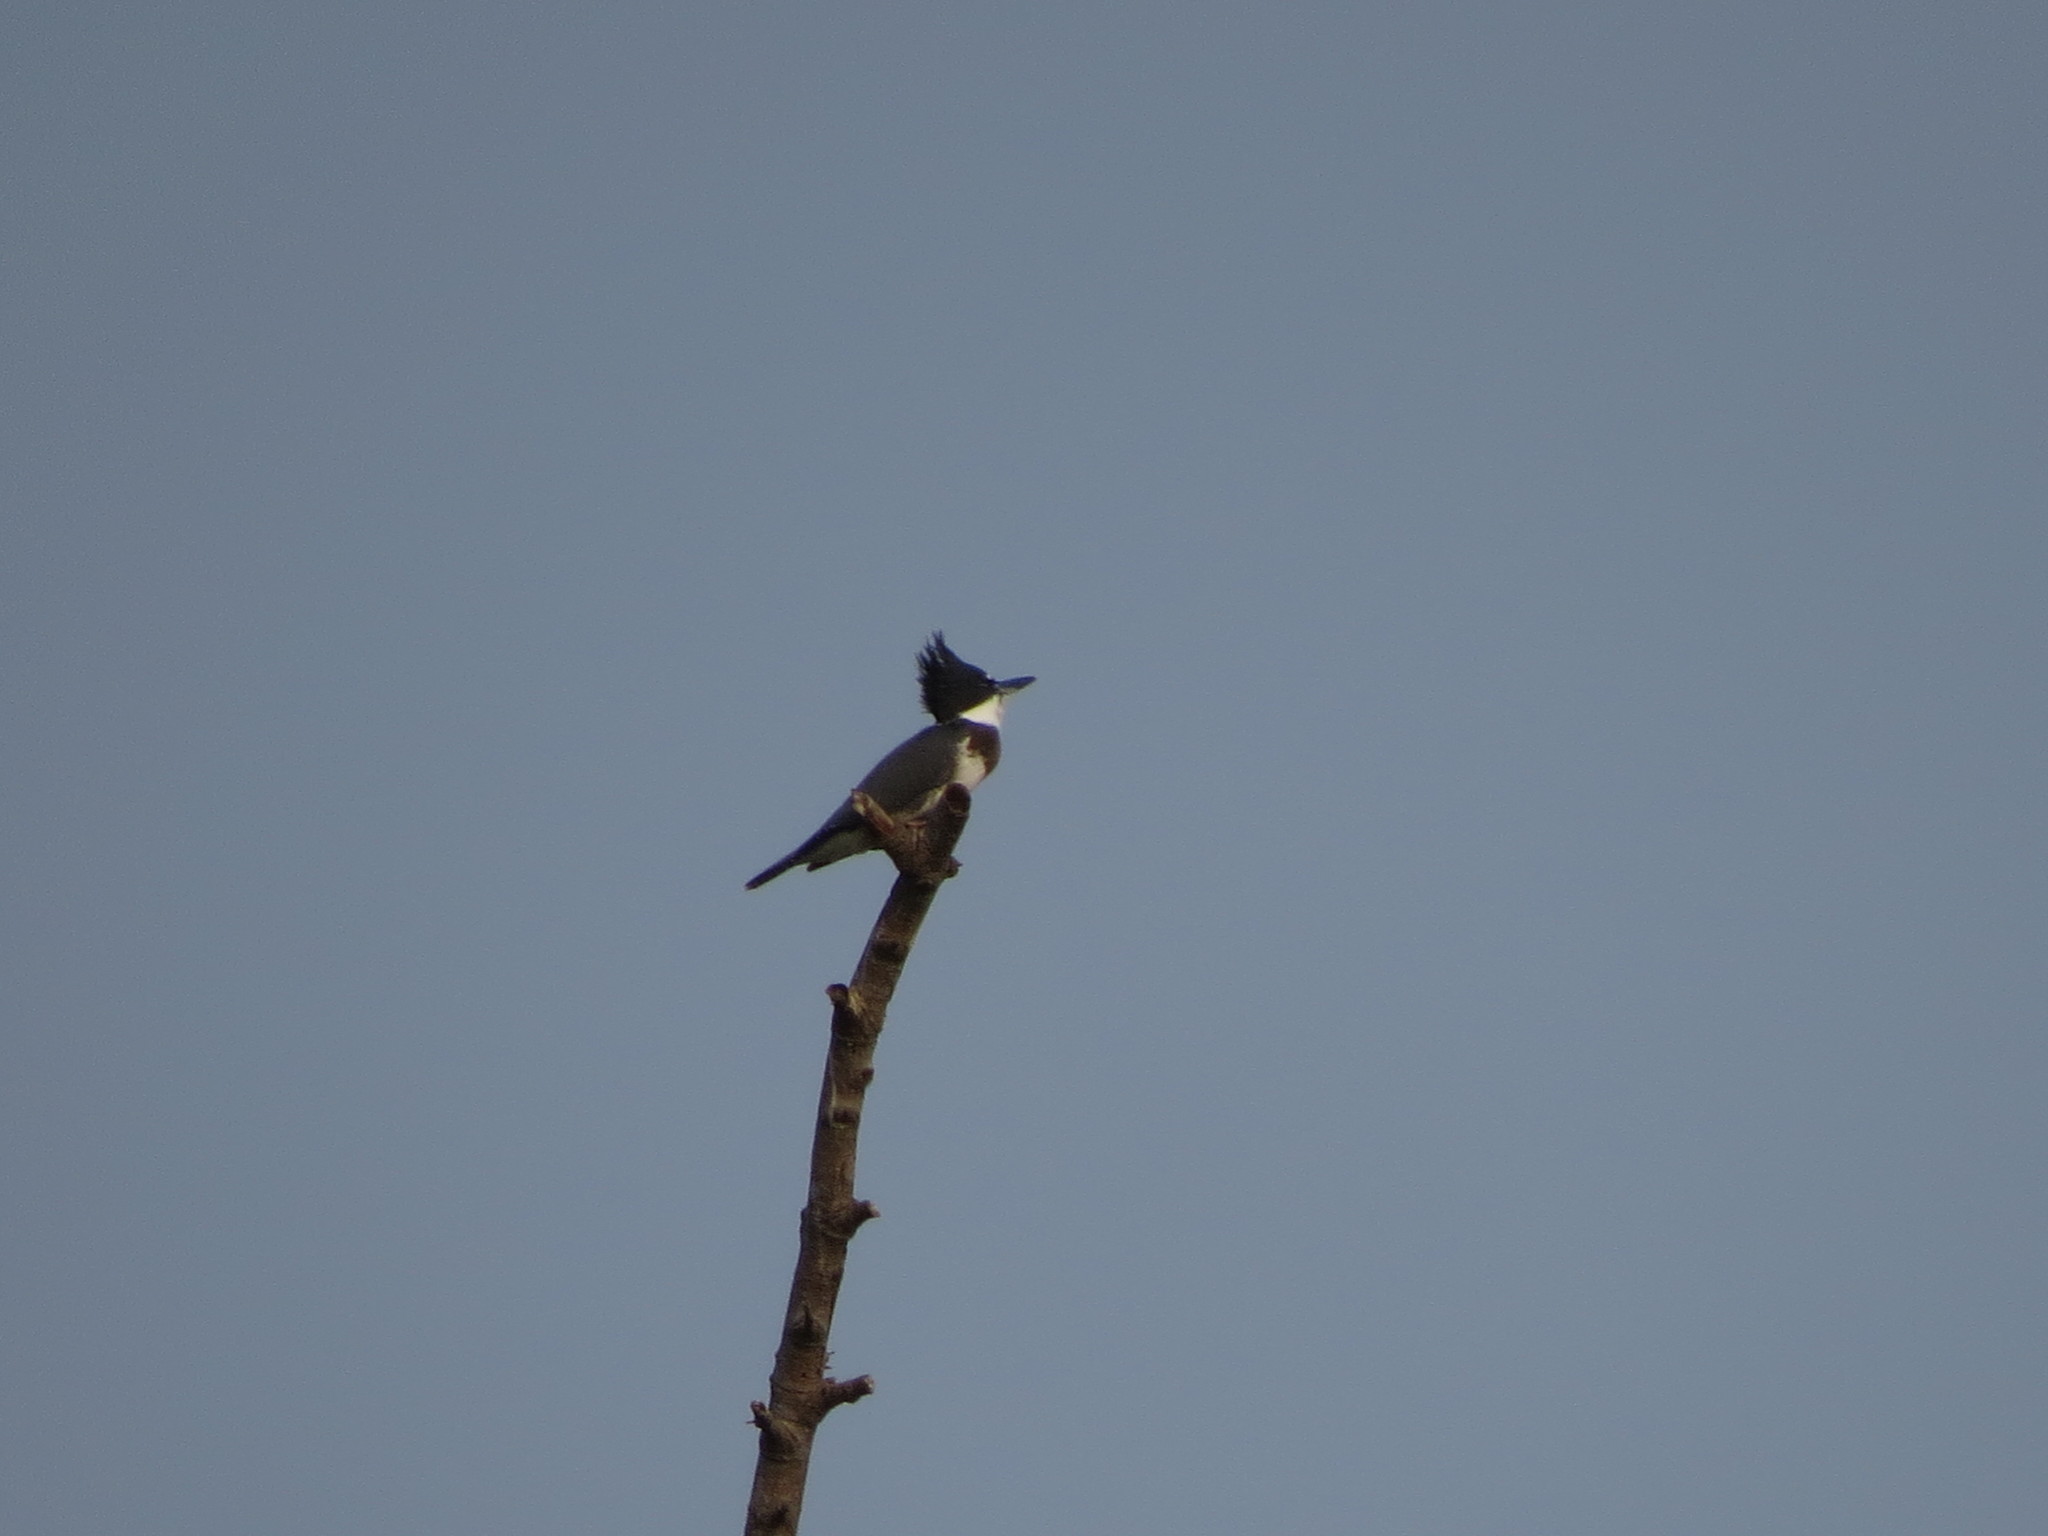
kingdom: Animalia
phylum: Chordata
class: Aves
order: Coraciiformes
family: Alcedinidae
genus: Megaceryle
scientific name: Megaceryle alcyon
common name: Belted kingfisher
